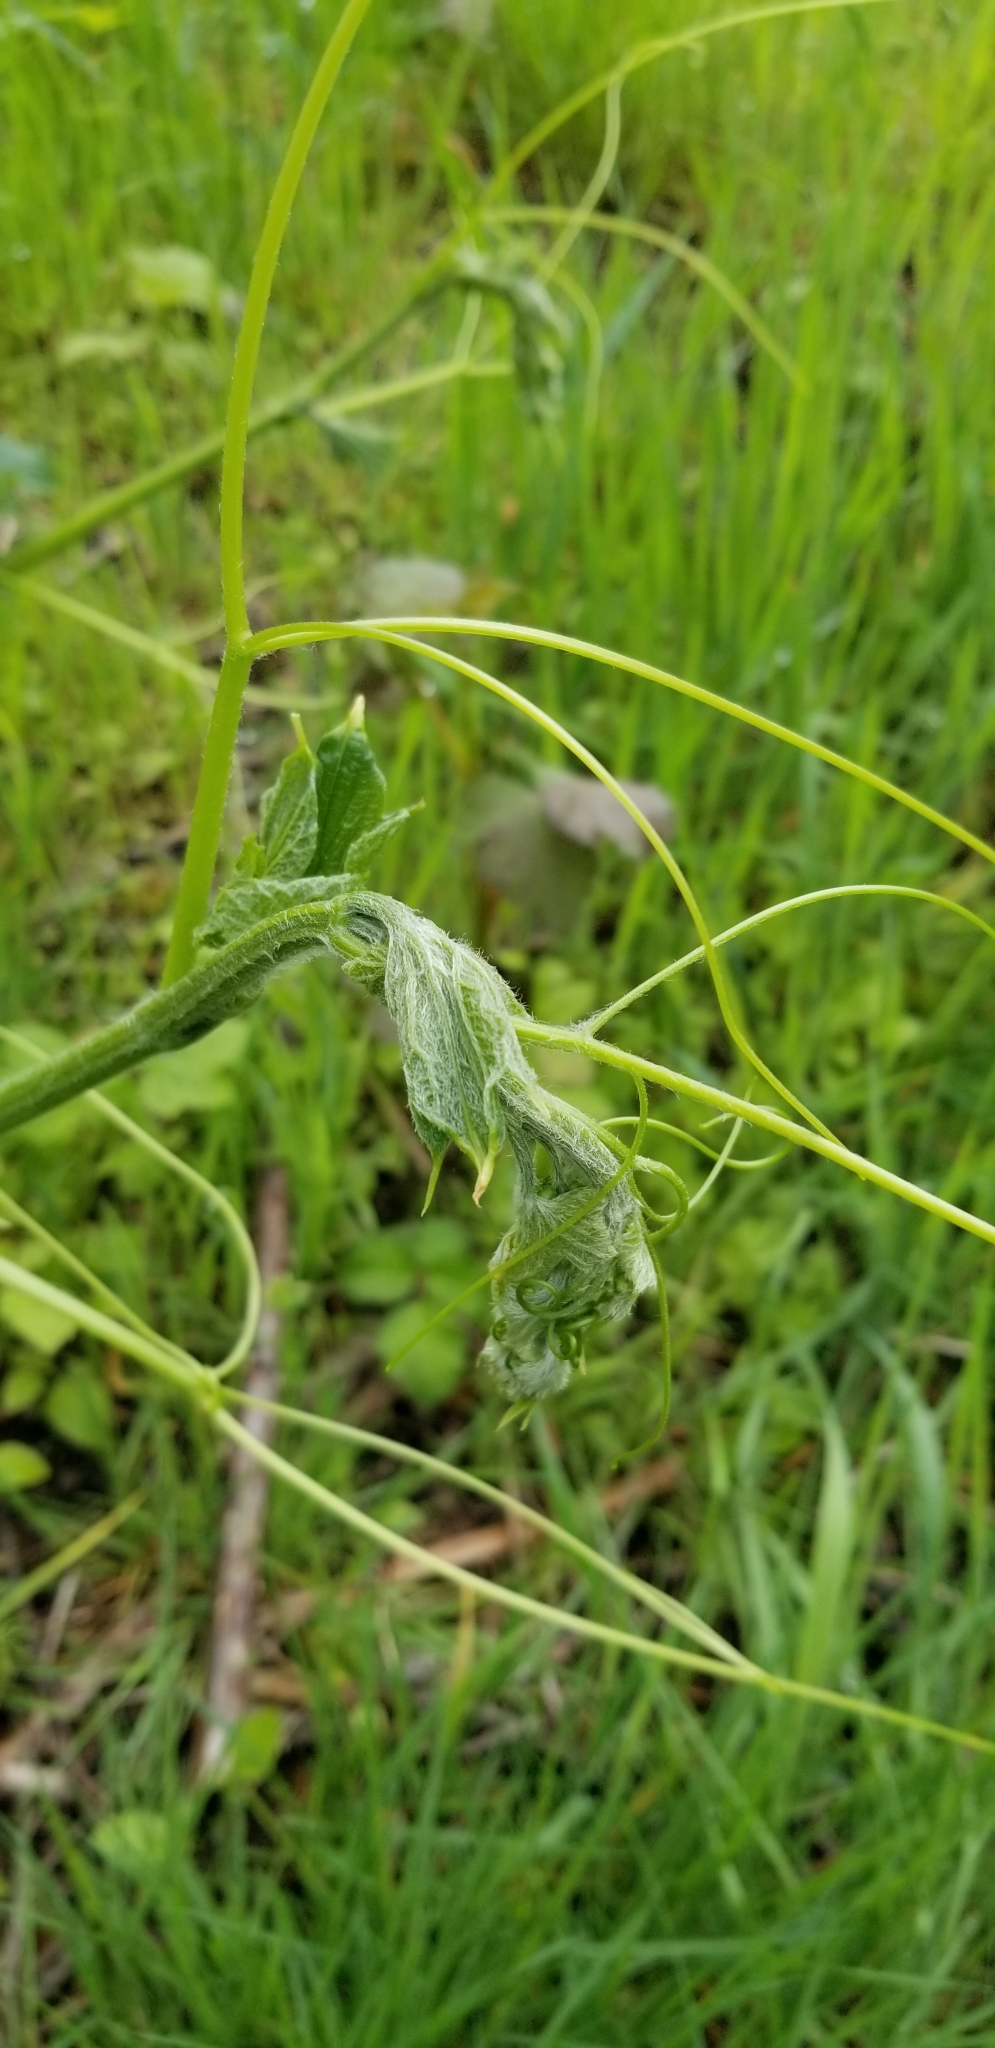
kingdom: Plantae
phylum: Tracheophyta
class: Magnoliopsida
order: Cucurbitales
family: Cucurbitaceae
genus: Marah
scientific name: Marah oregana
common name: Coastal manroot
